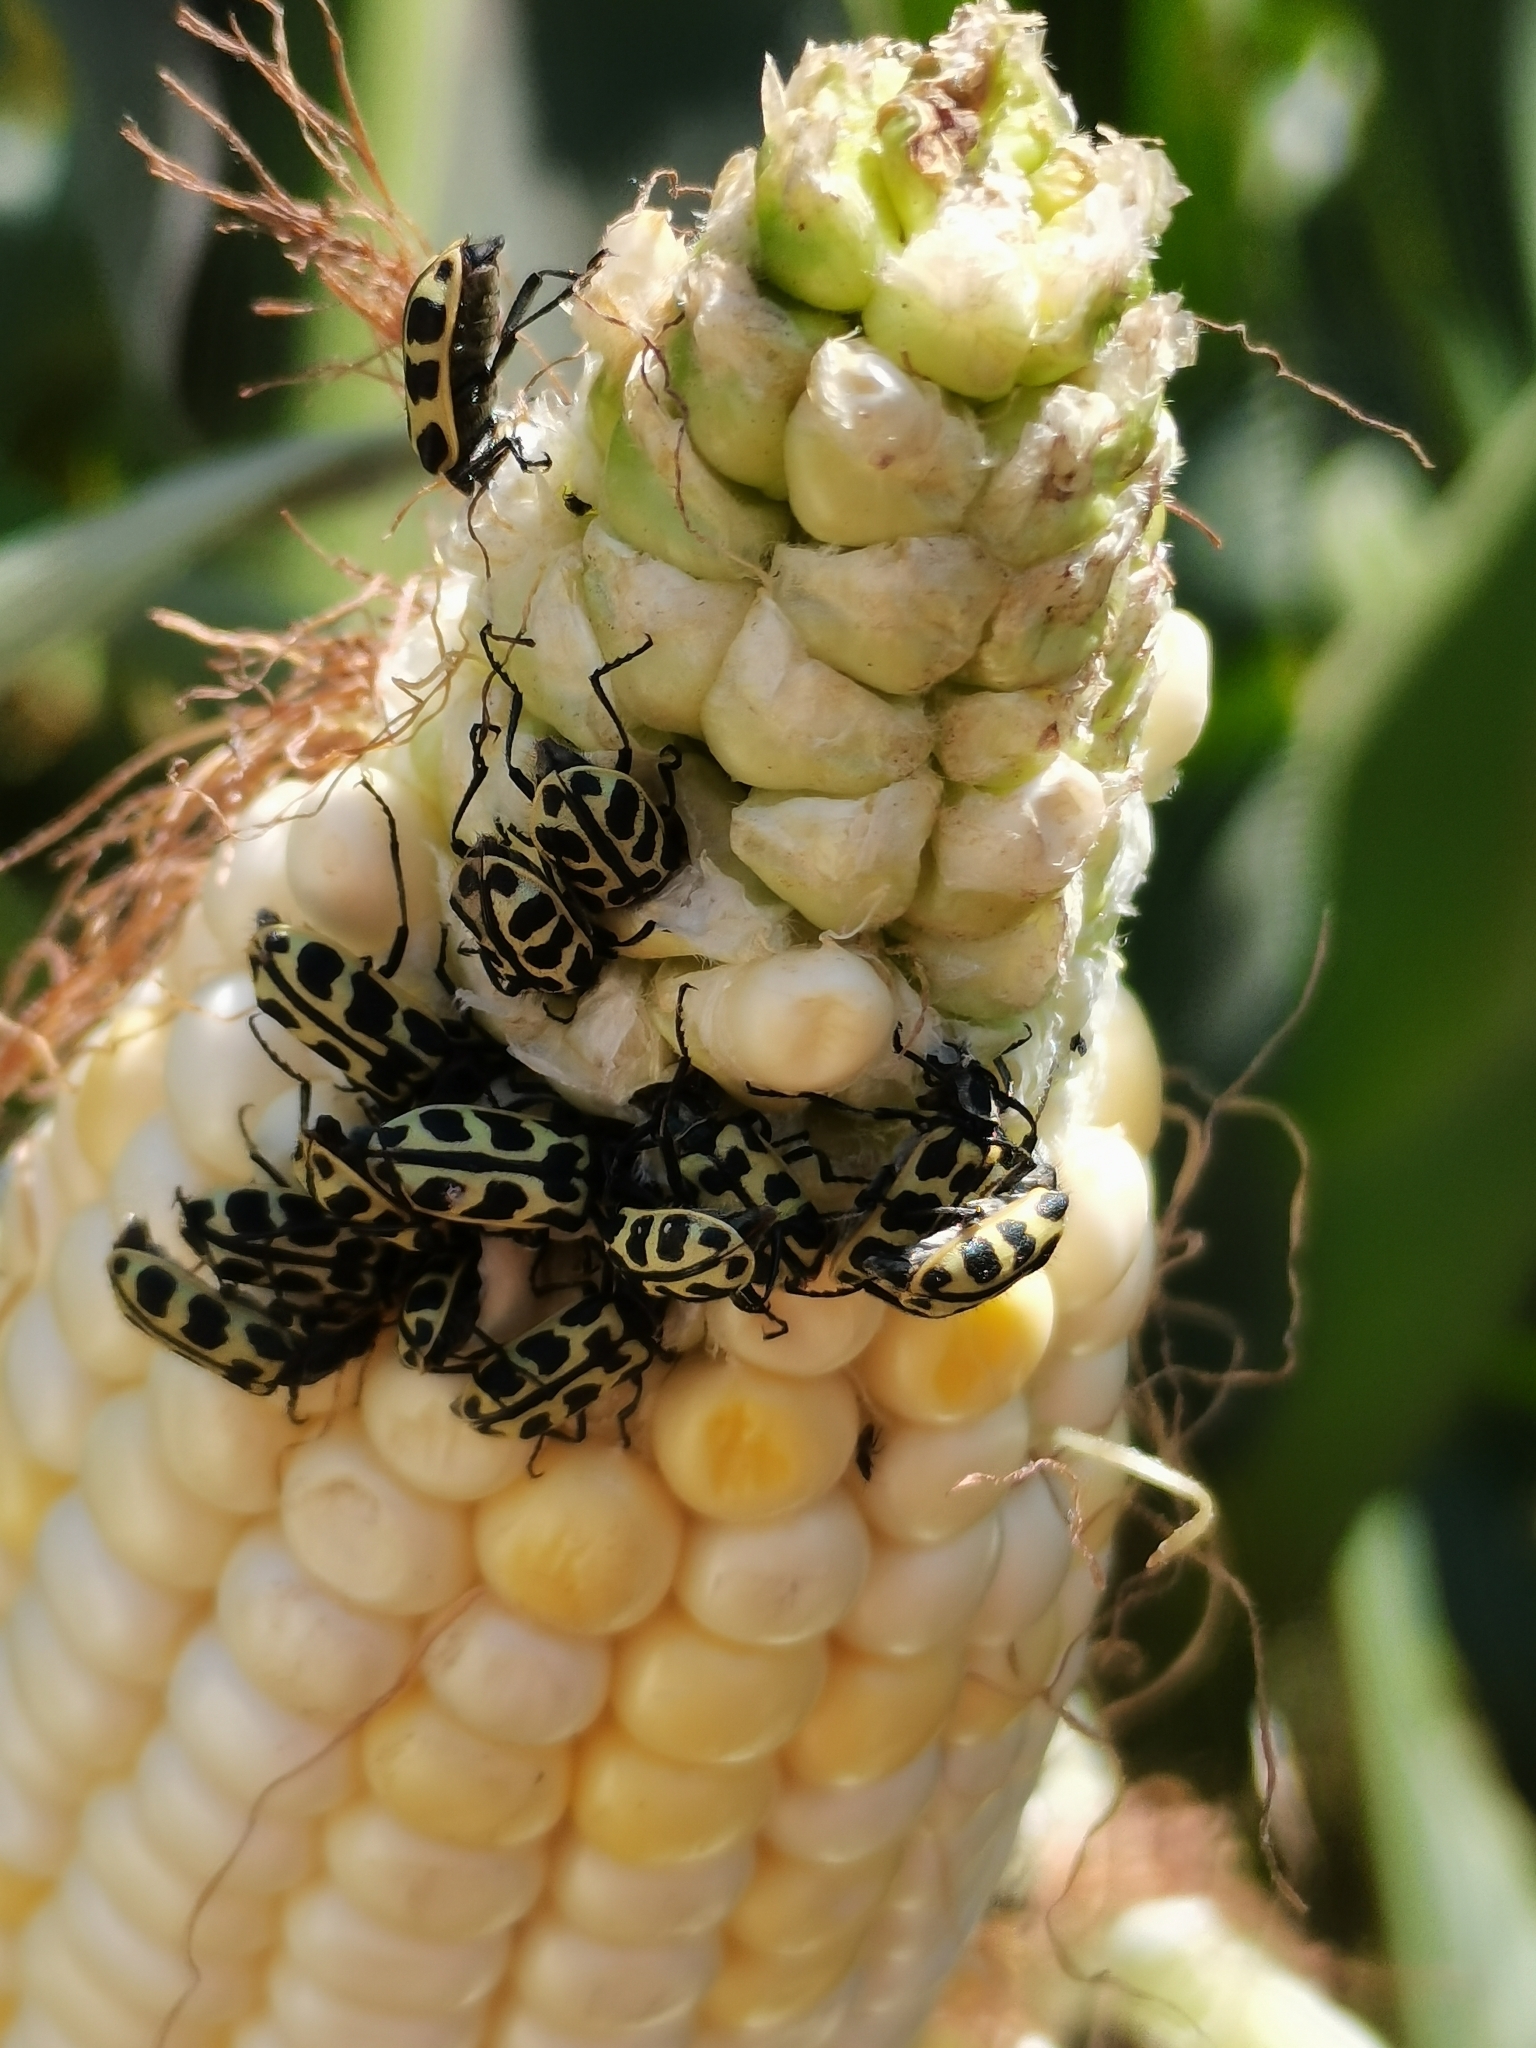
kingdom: Animalia
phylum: Arthropoda
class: Insecta
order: Coleoptera
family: Melyridae
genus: Astylus
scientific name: Astylus atromaculatus
